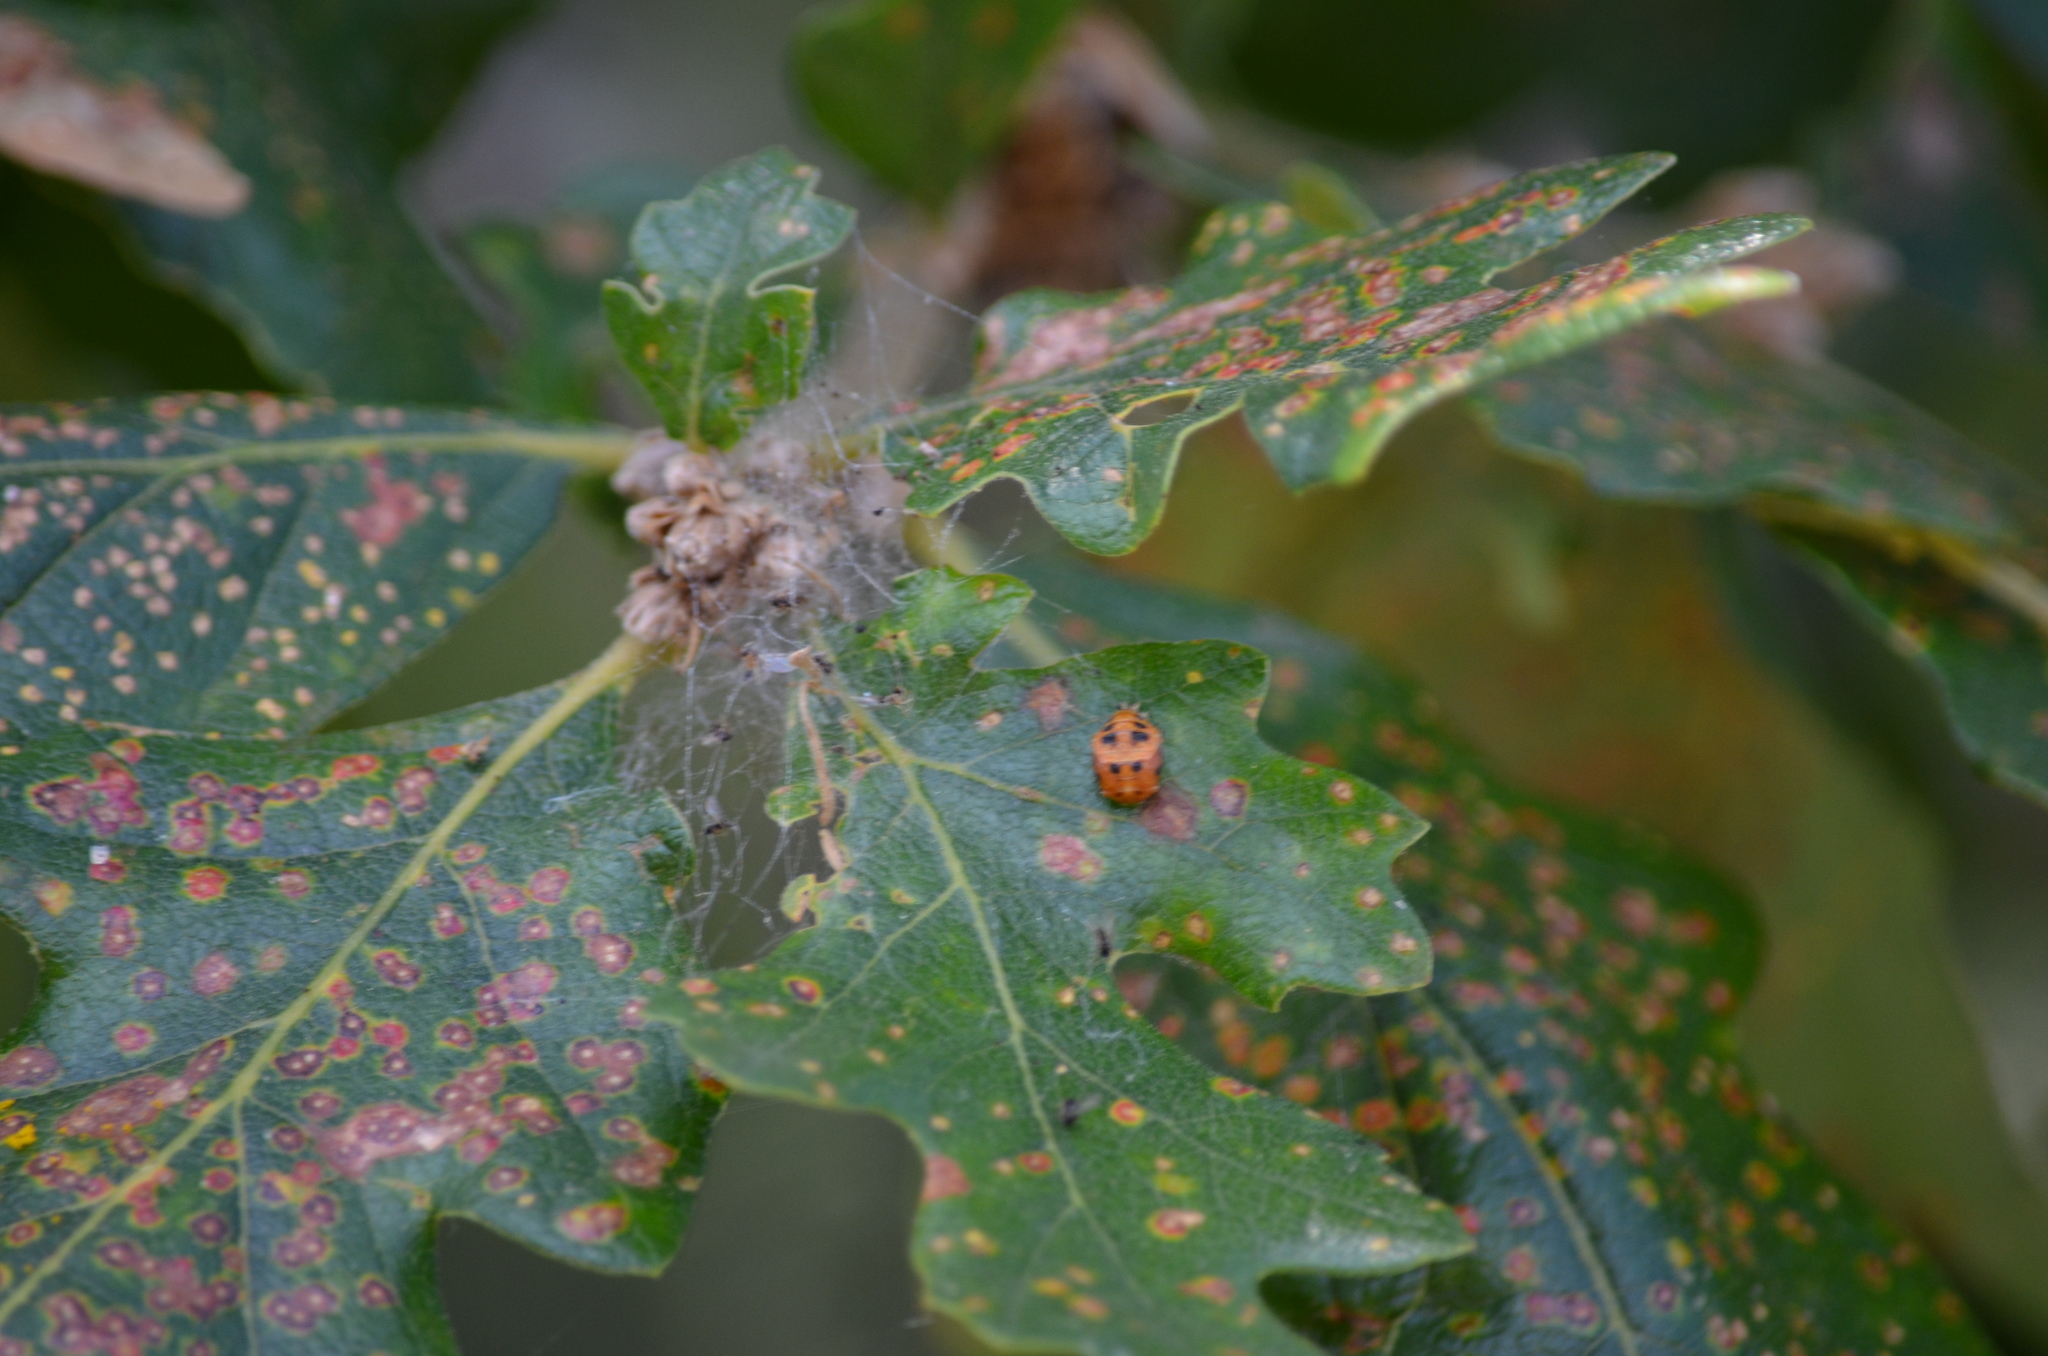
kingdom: Animalia
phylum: Arthropoda
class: Insecta
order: Coleoptera
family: Coccinellidae
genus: Harmonia
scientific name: Harmonia axyridis
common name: Harlequin ladybird
